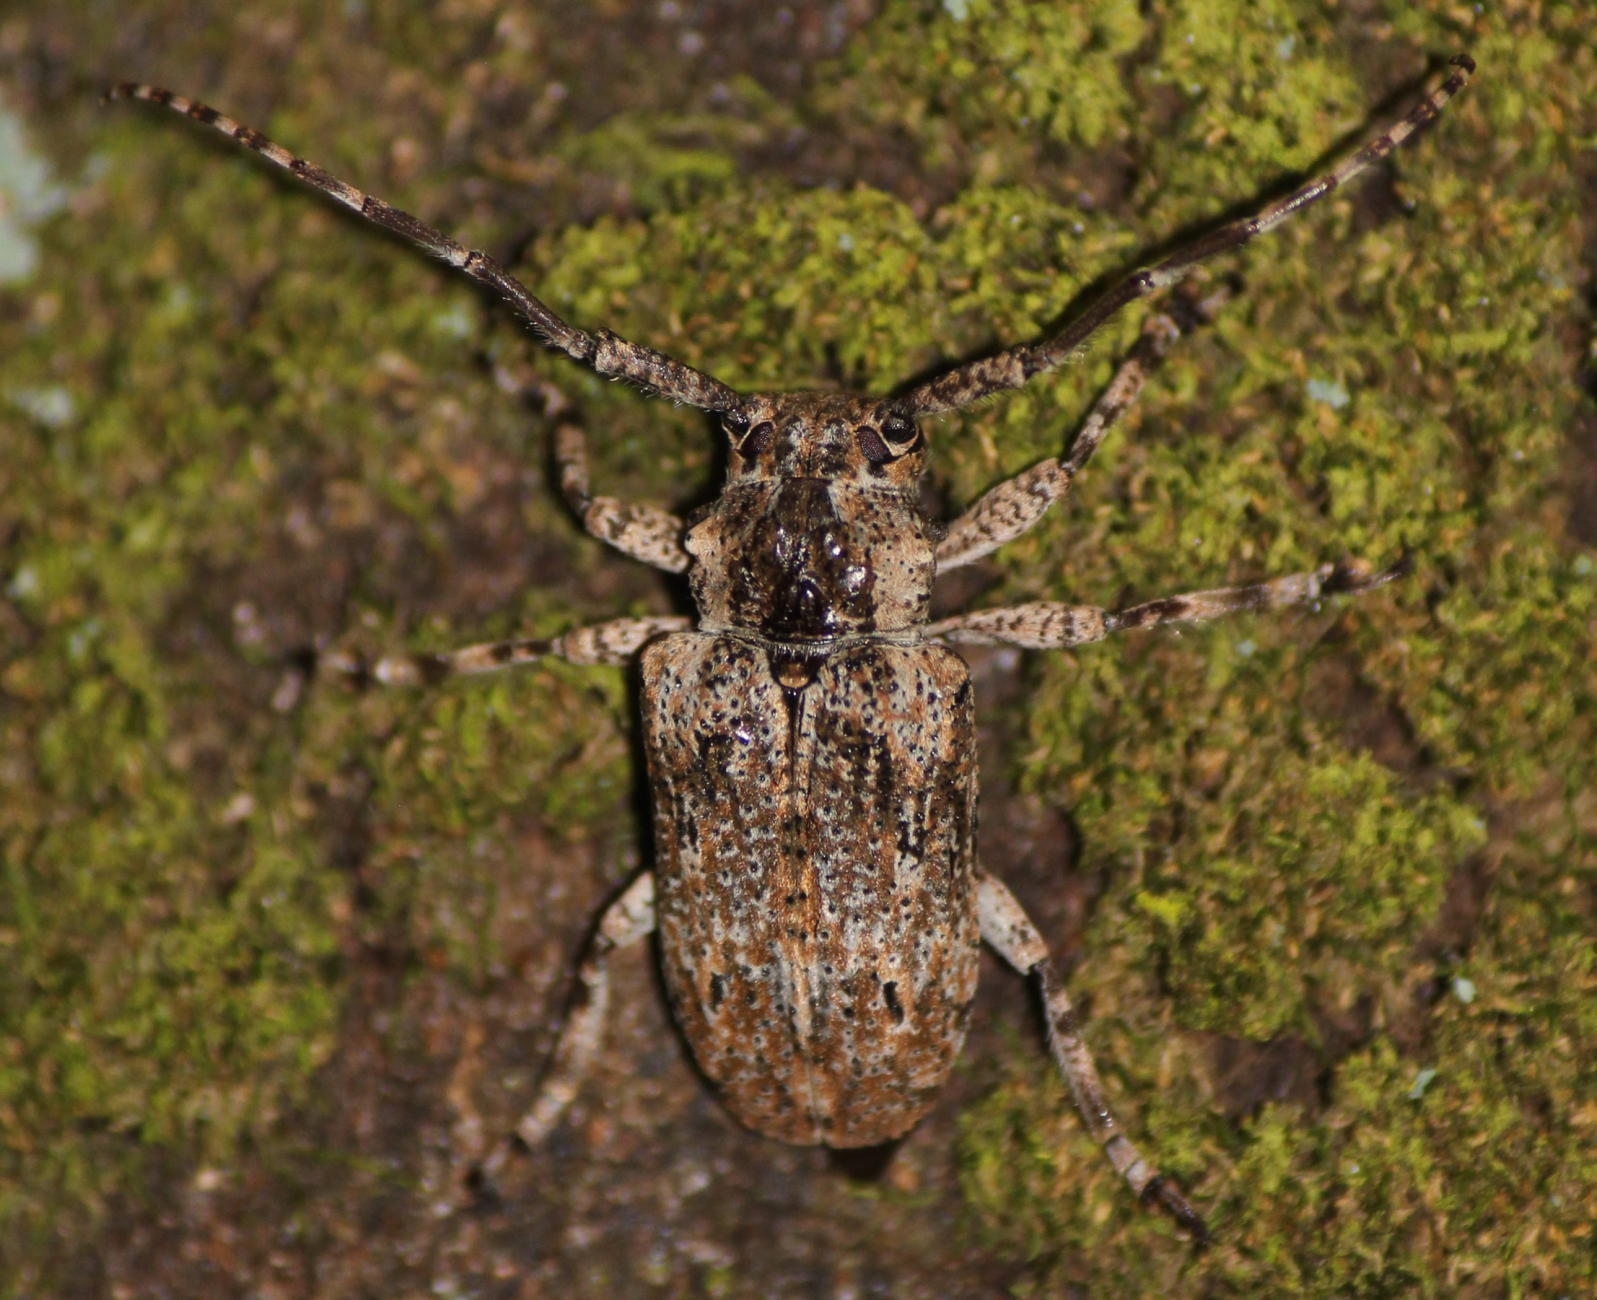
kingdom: Animalia
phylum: Arthropoda
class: Insecta
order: Coleoptera
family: Cerambycidae
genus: Coptops
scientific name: Coptops aedificator
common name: Long-horned beetle
